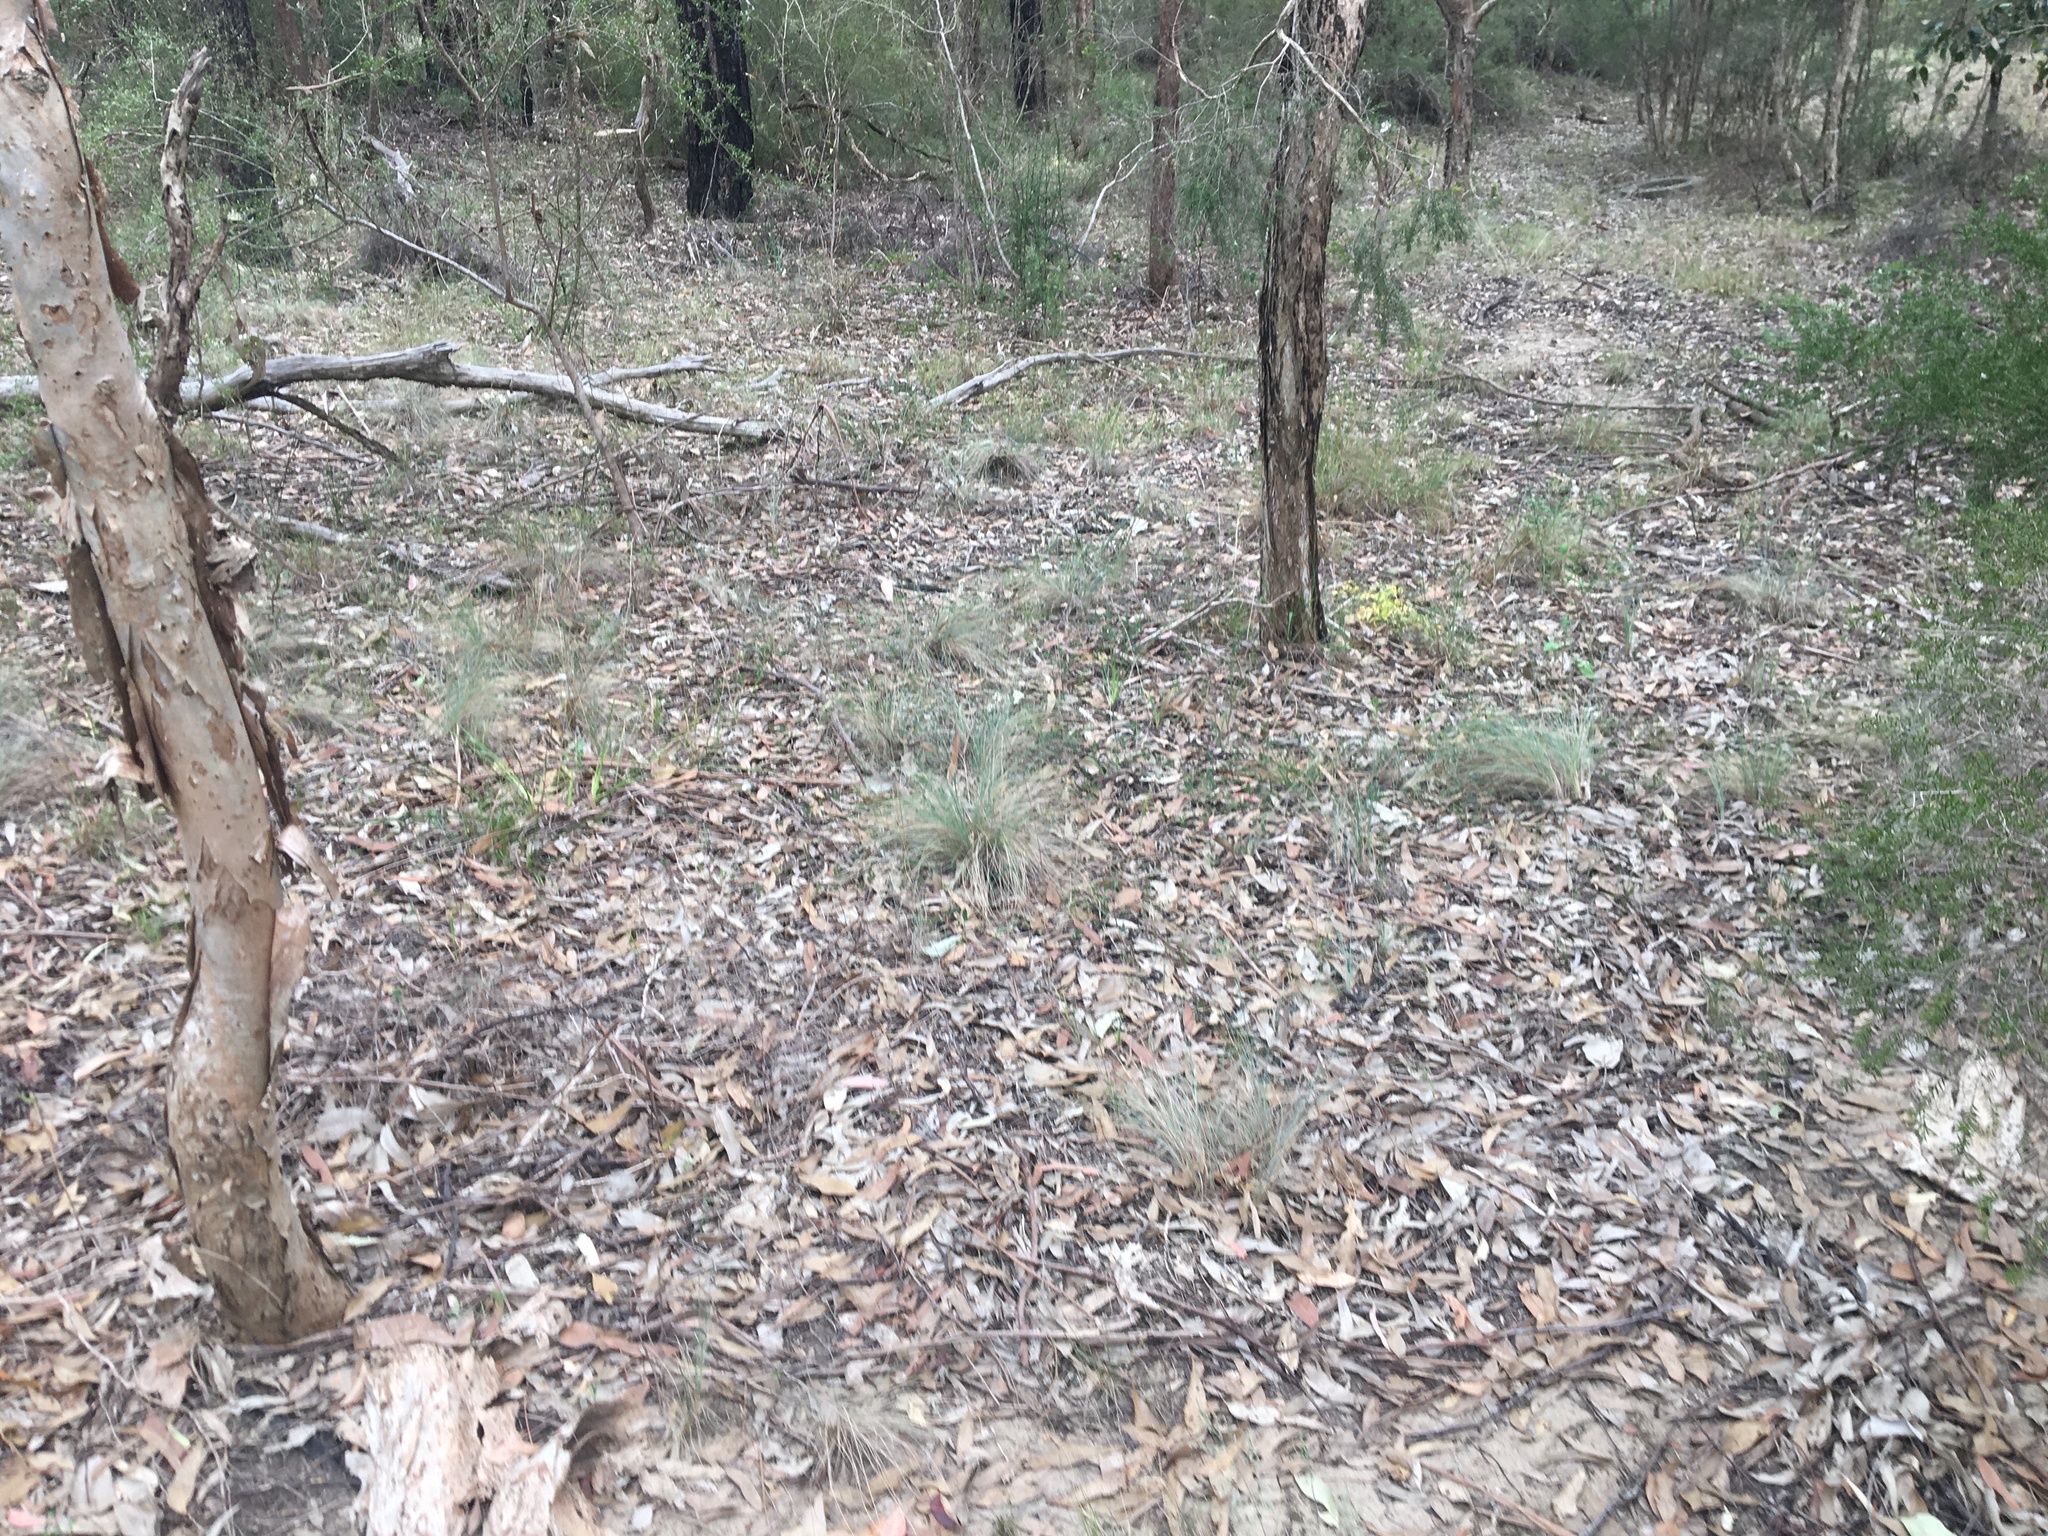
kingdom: Plantae
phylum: Tracheophyta
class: Liliopsida
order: Poales
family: Poaceae
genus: Poa
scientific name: Poa sieberiana
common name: Tussock poa
